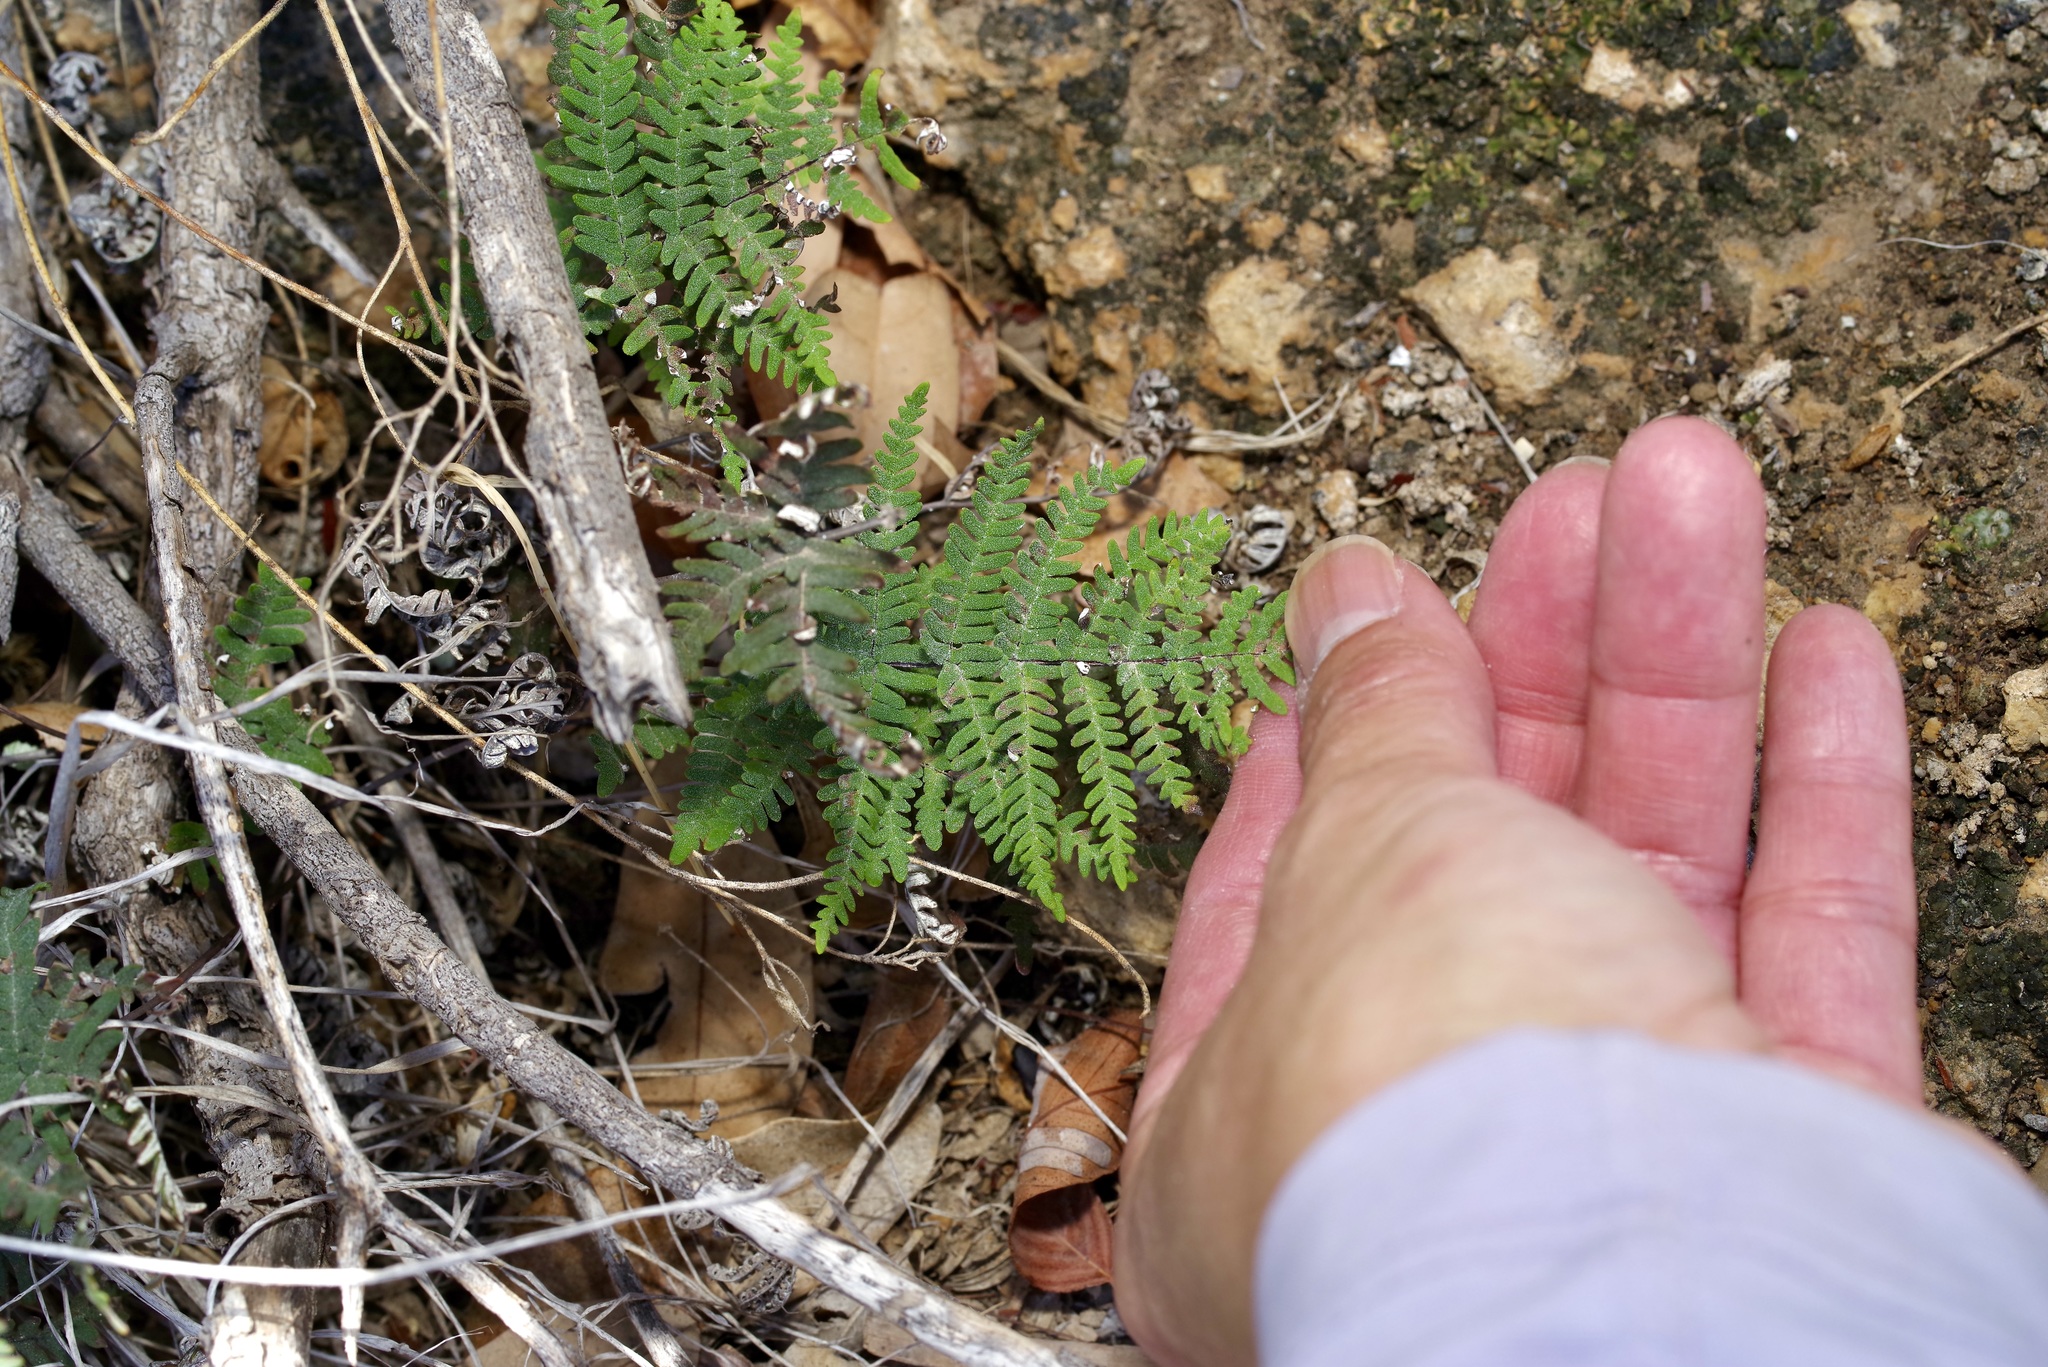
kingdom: Plantae
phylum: Tracheophyta
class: Polypodiopsida
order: Polypodiales
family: Pteridaceae
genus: Notholaena
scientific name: Notholaena candida
